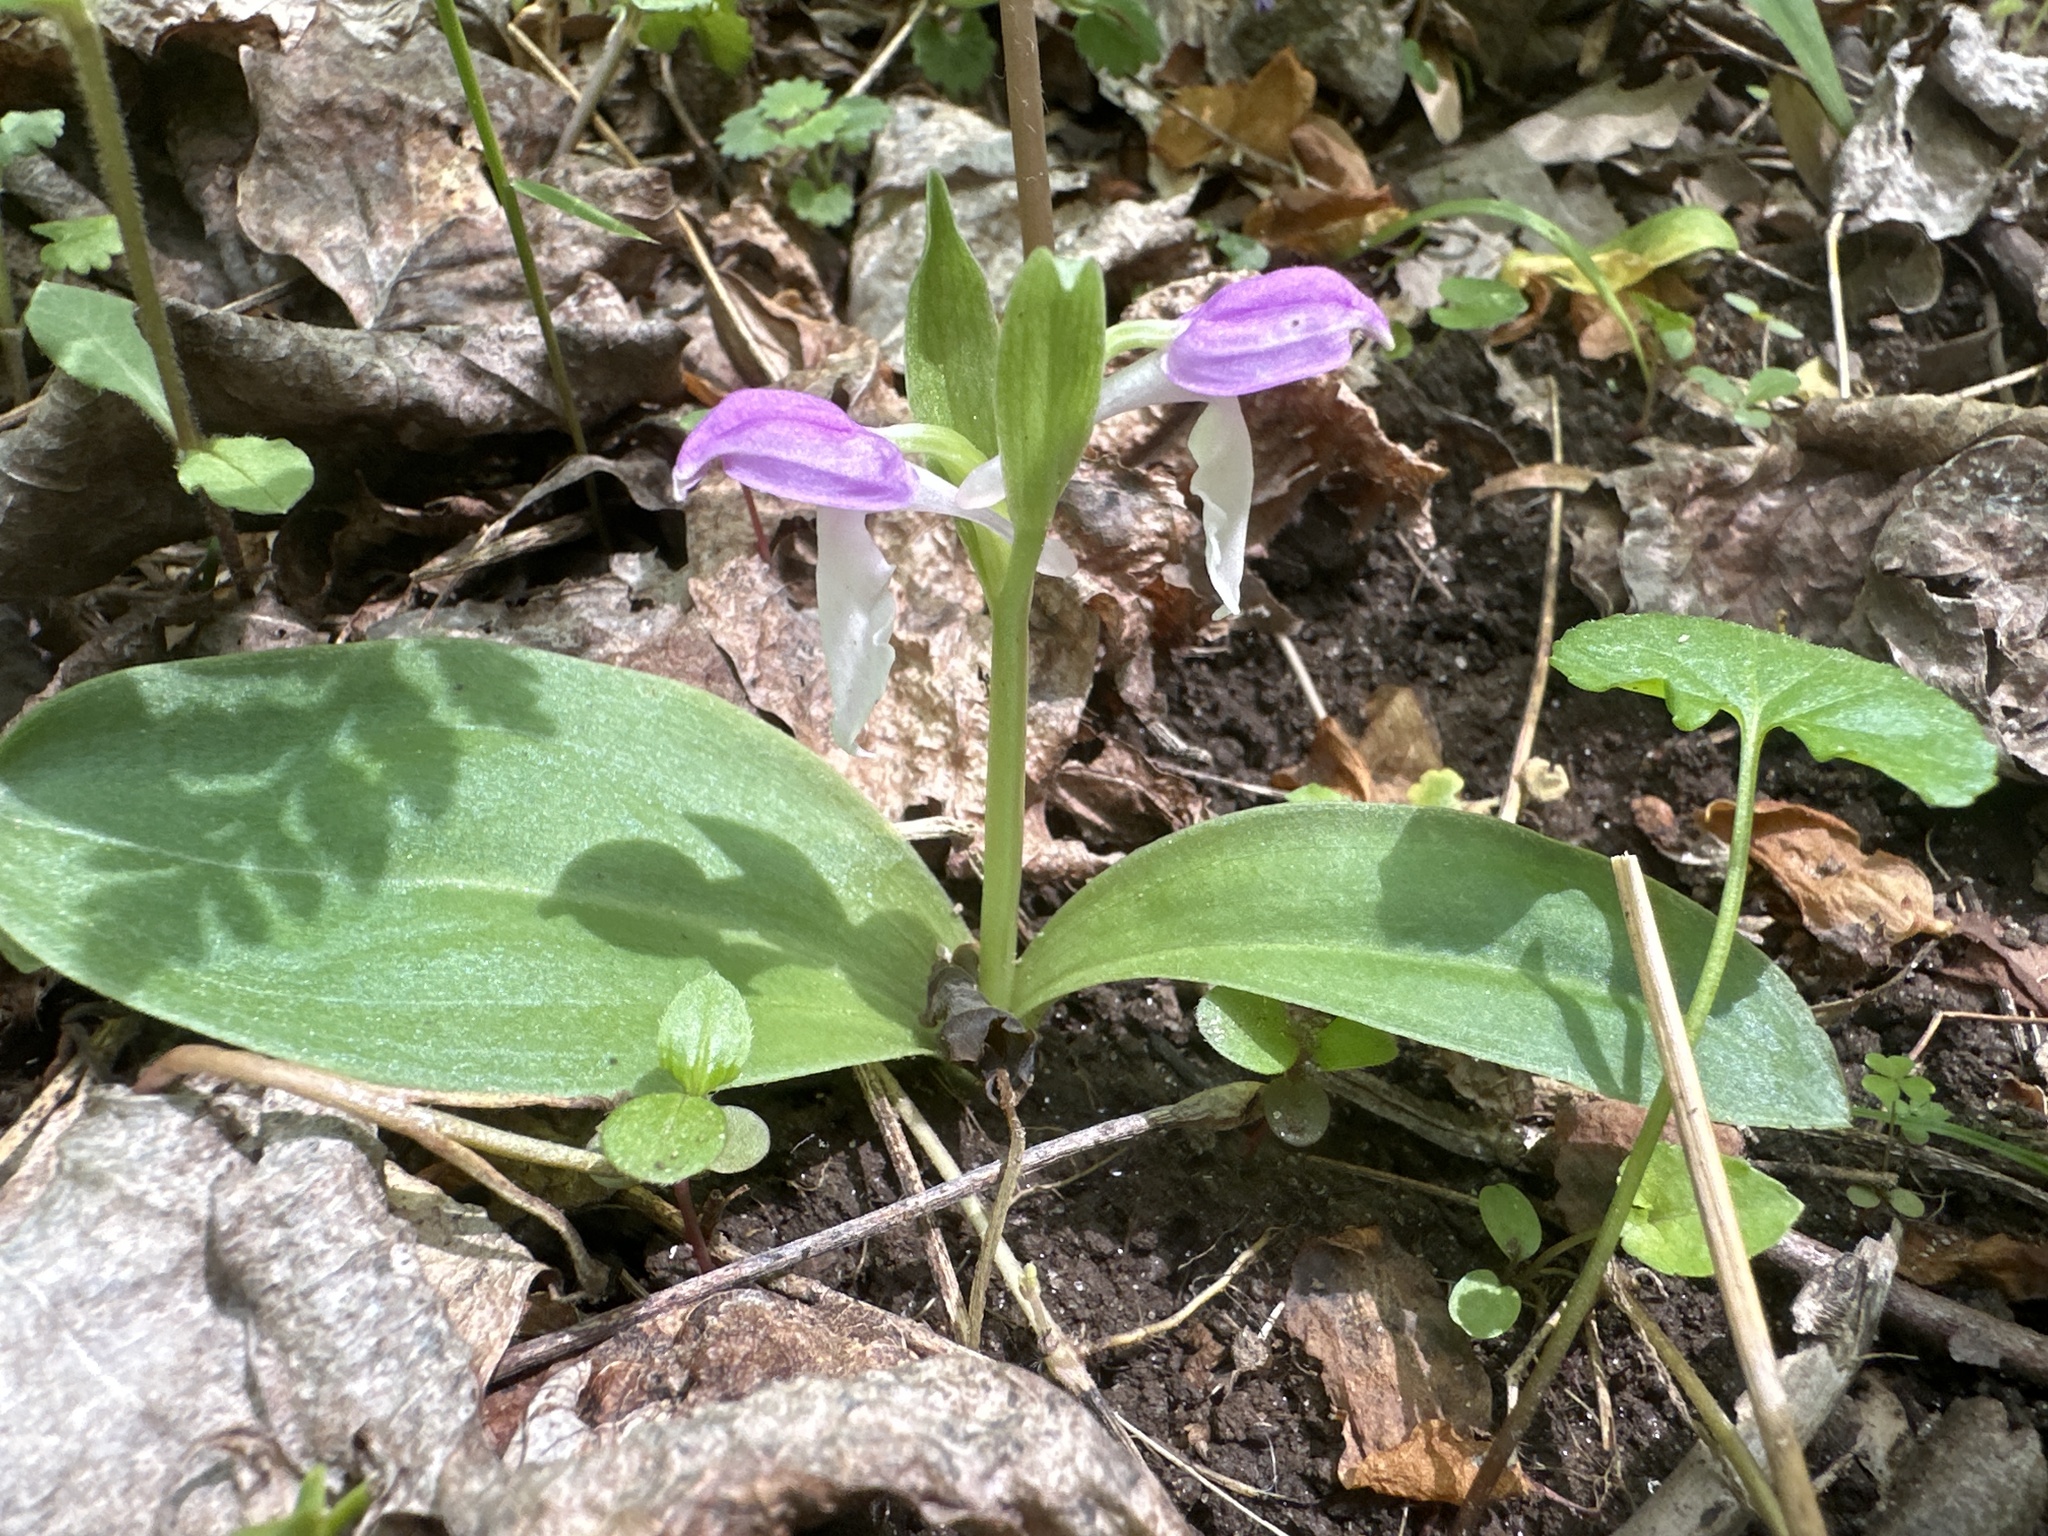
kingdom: Plantae
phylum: Tracheophyta
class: Liliopsida
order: Asparagales
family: Orchidaceae
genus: Galearis
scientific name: Galearis spectabilis
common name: Purple-hooded orchis
